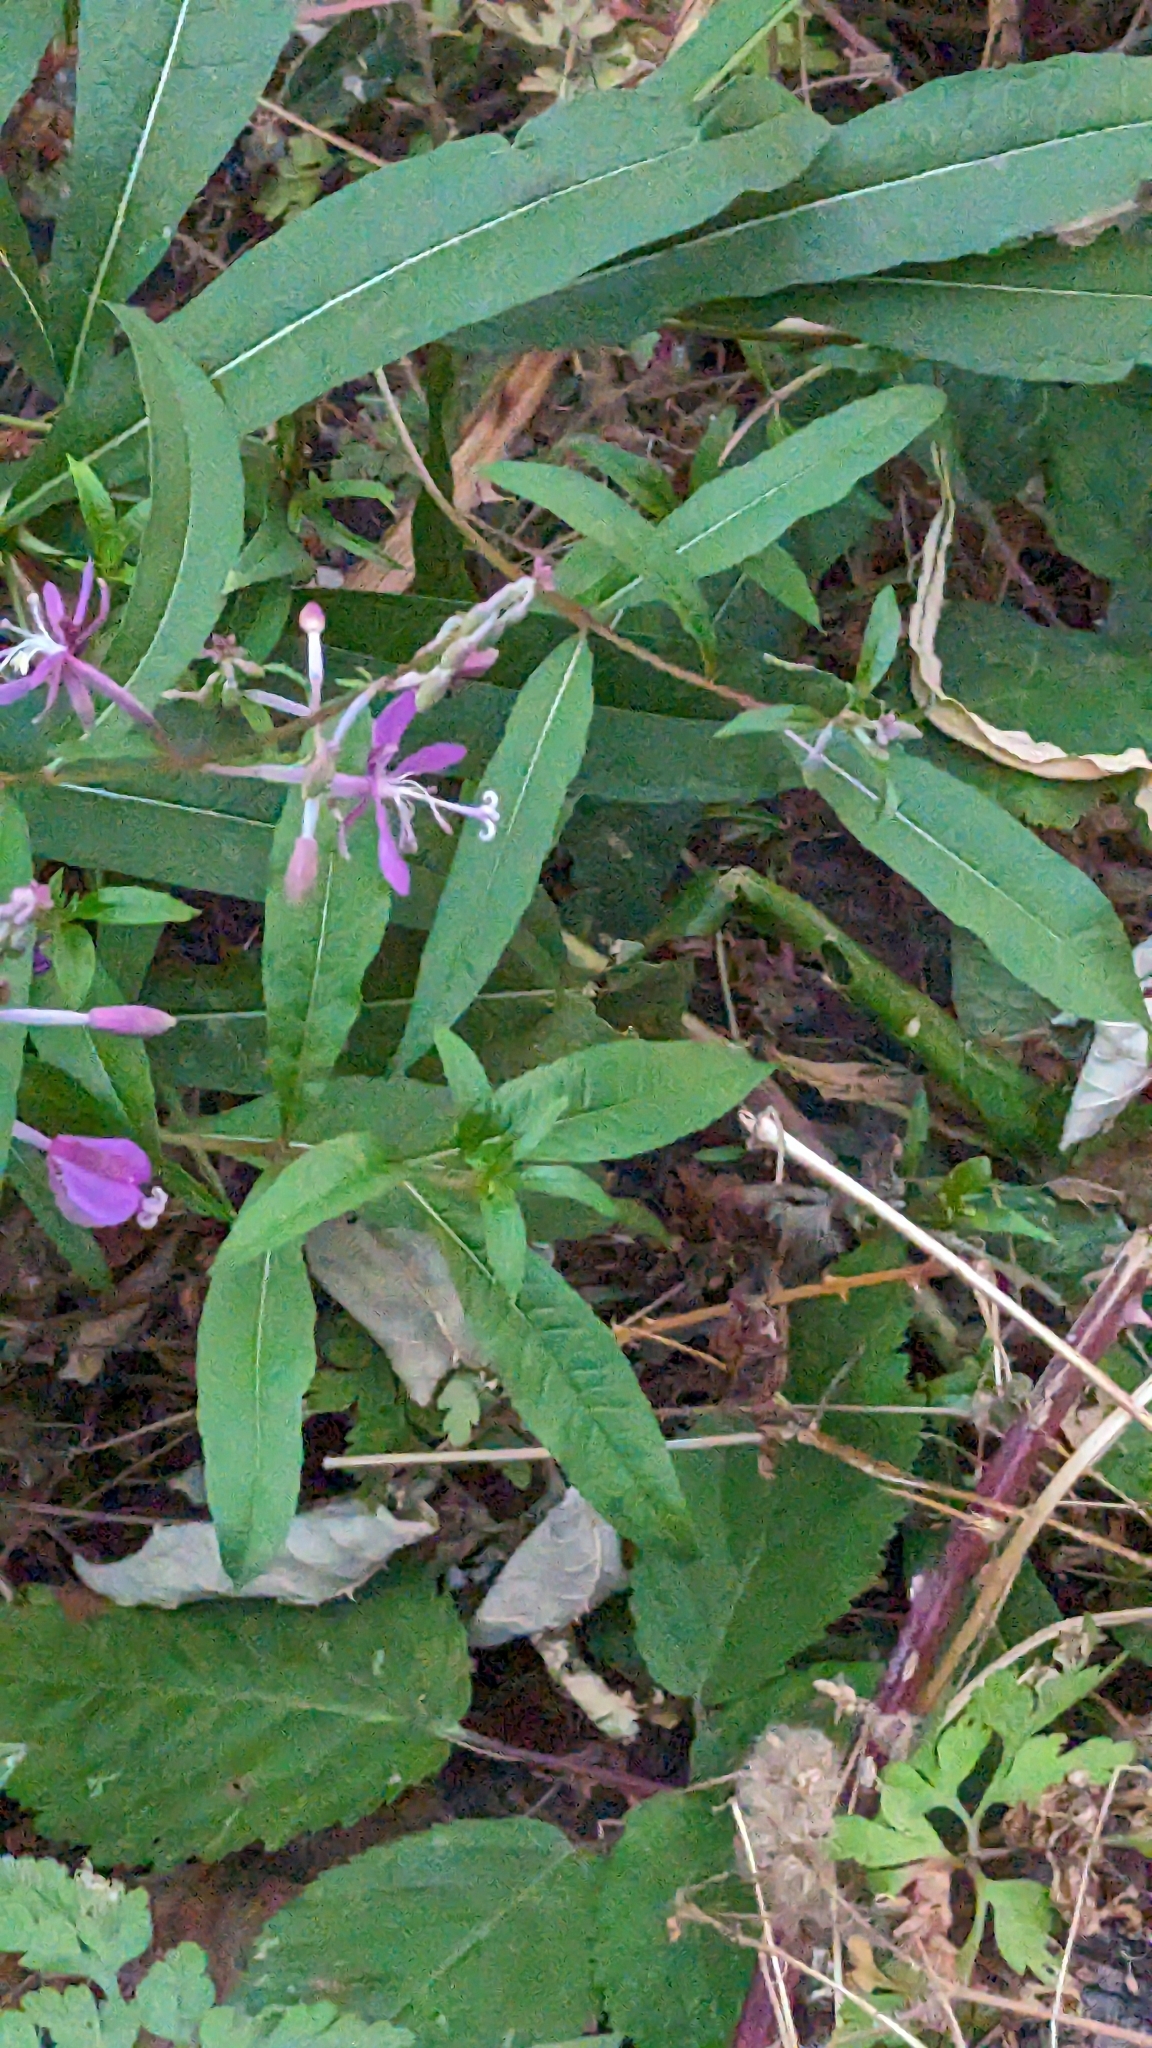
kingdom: Plantae
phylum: Tracheophyta
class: Magnoliopsida
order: Myrtales
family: Onagraceae
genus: Chamaenerion
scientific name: Chamaenerion angustifolium
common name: Fireweed
